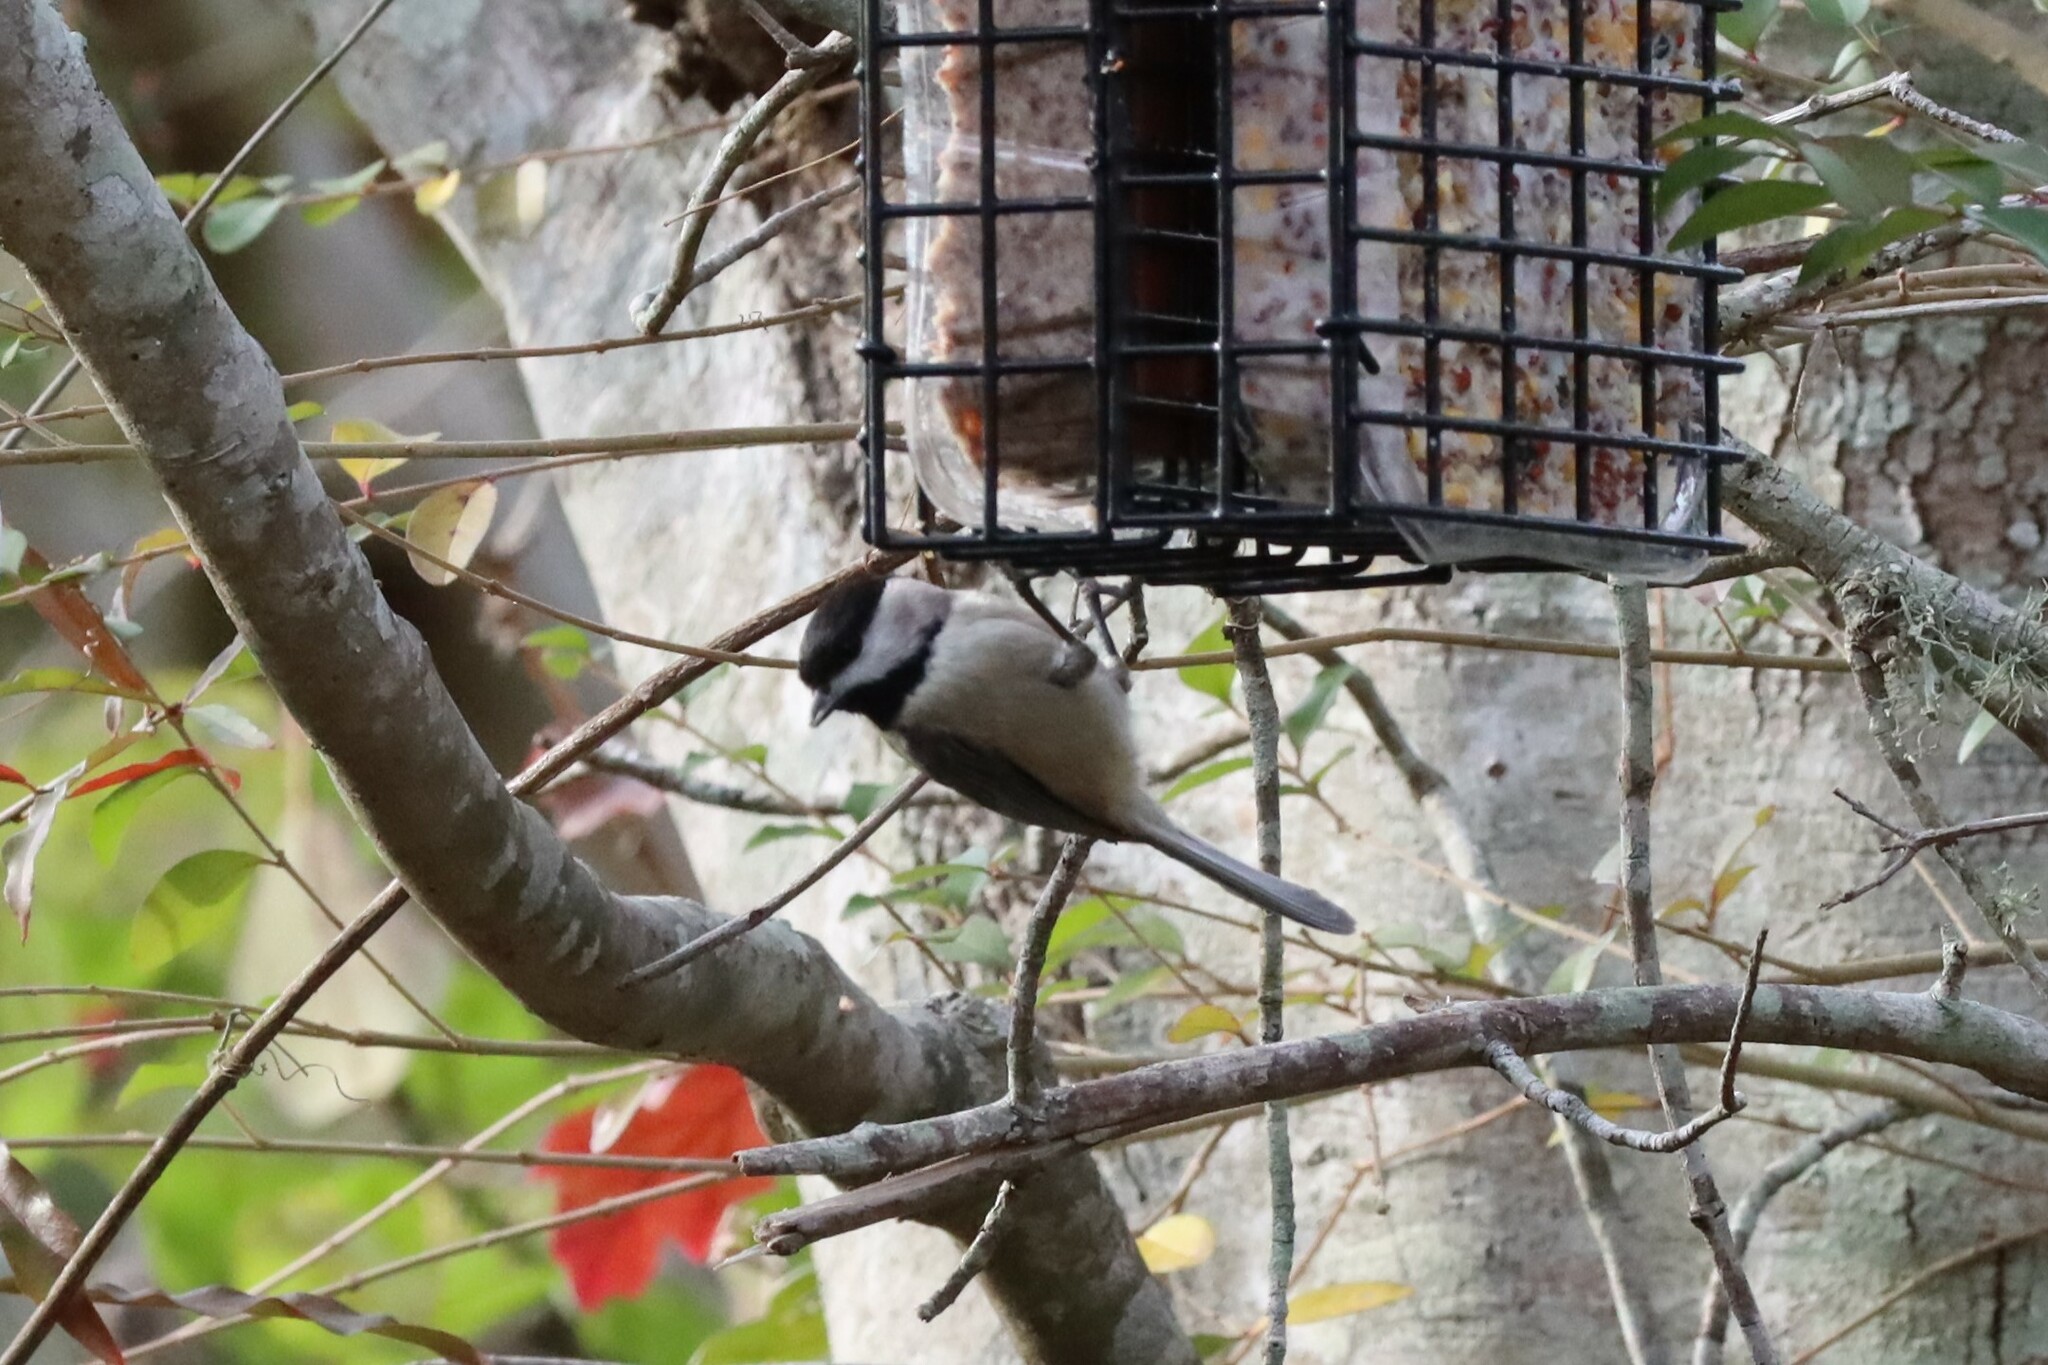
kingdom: Animalia
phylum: Chordata
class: Aves
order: Passeriformes
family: Paridae
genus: Poecile
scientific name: Poecile carolinensis
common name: Carolina chickadee
